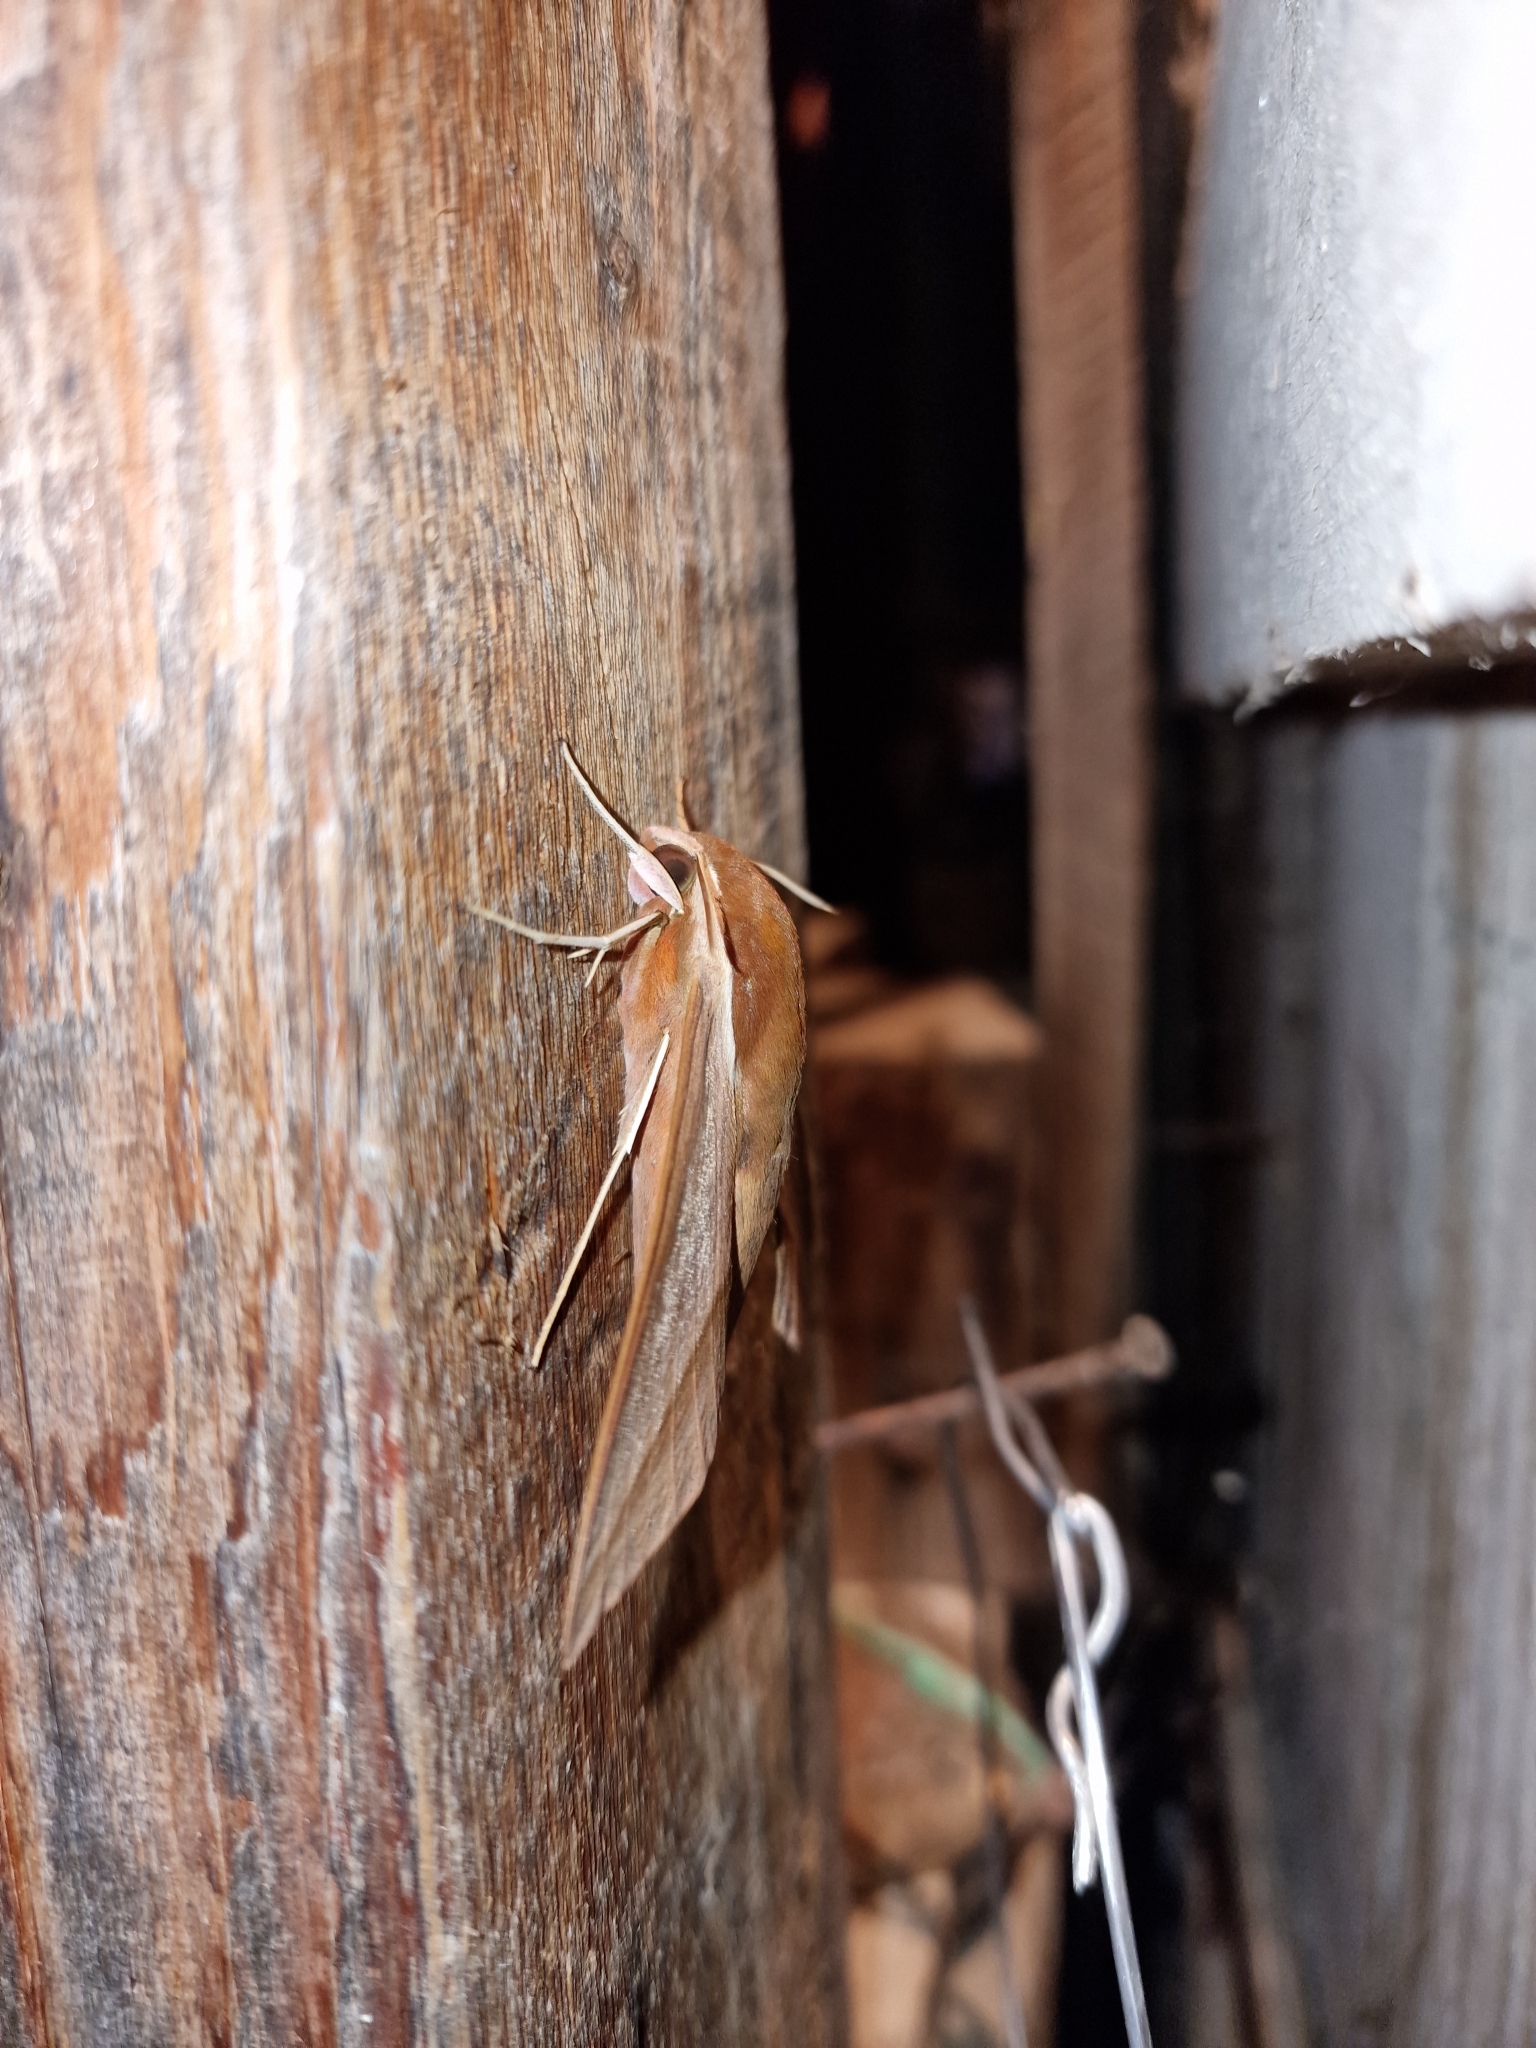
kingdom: Animalia
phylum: Arthropoda
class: Insecta
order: Lepidoptera
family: Sphingidae
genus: Theretra
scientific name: Theretra alecto
